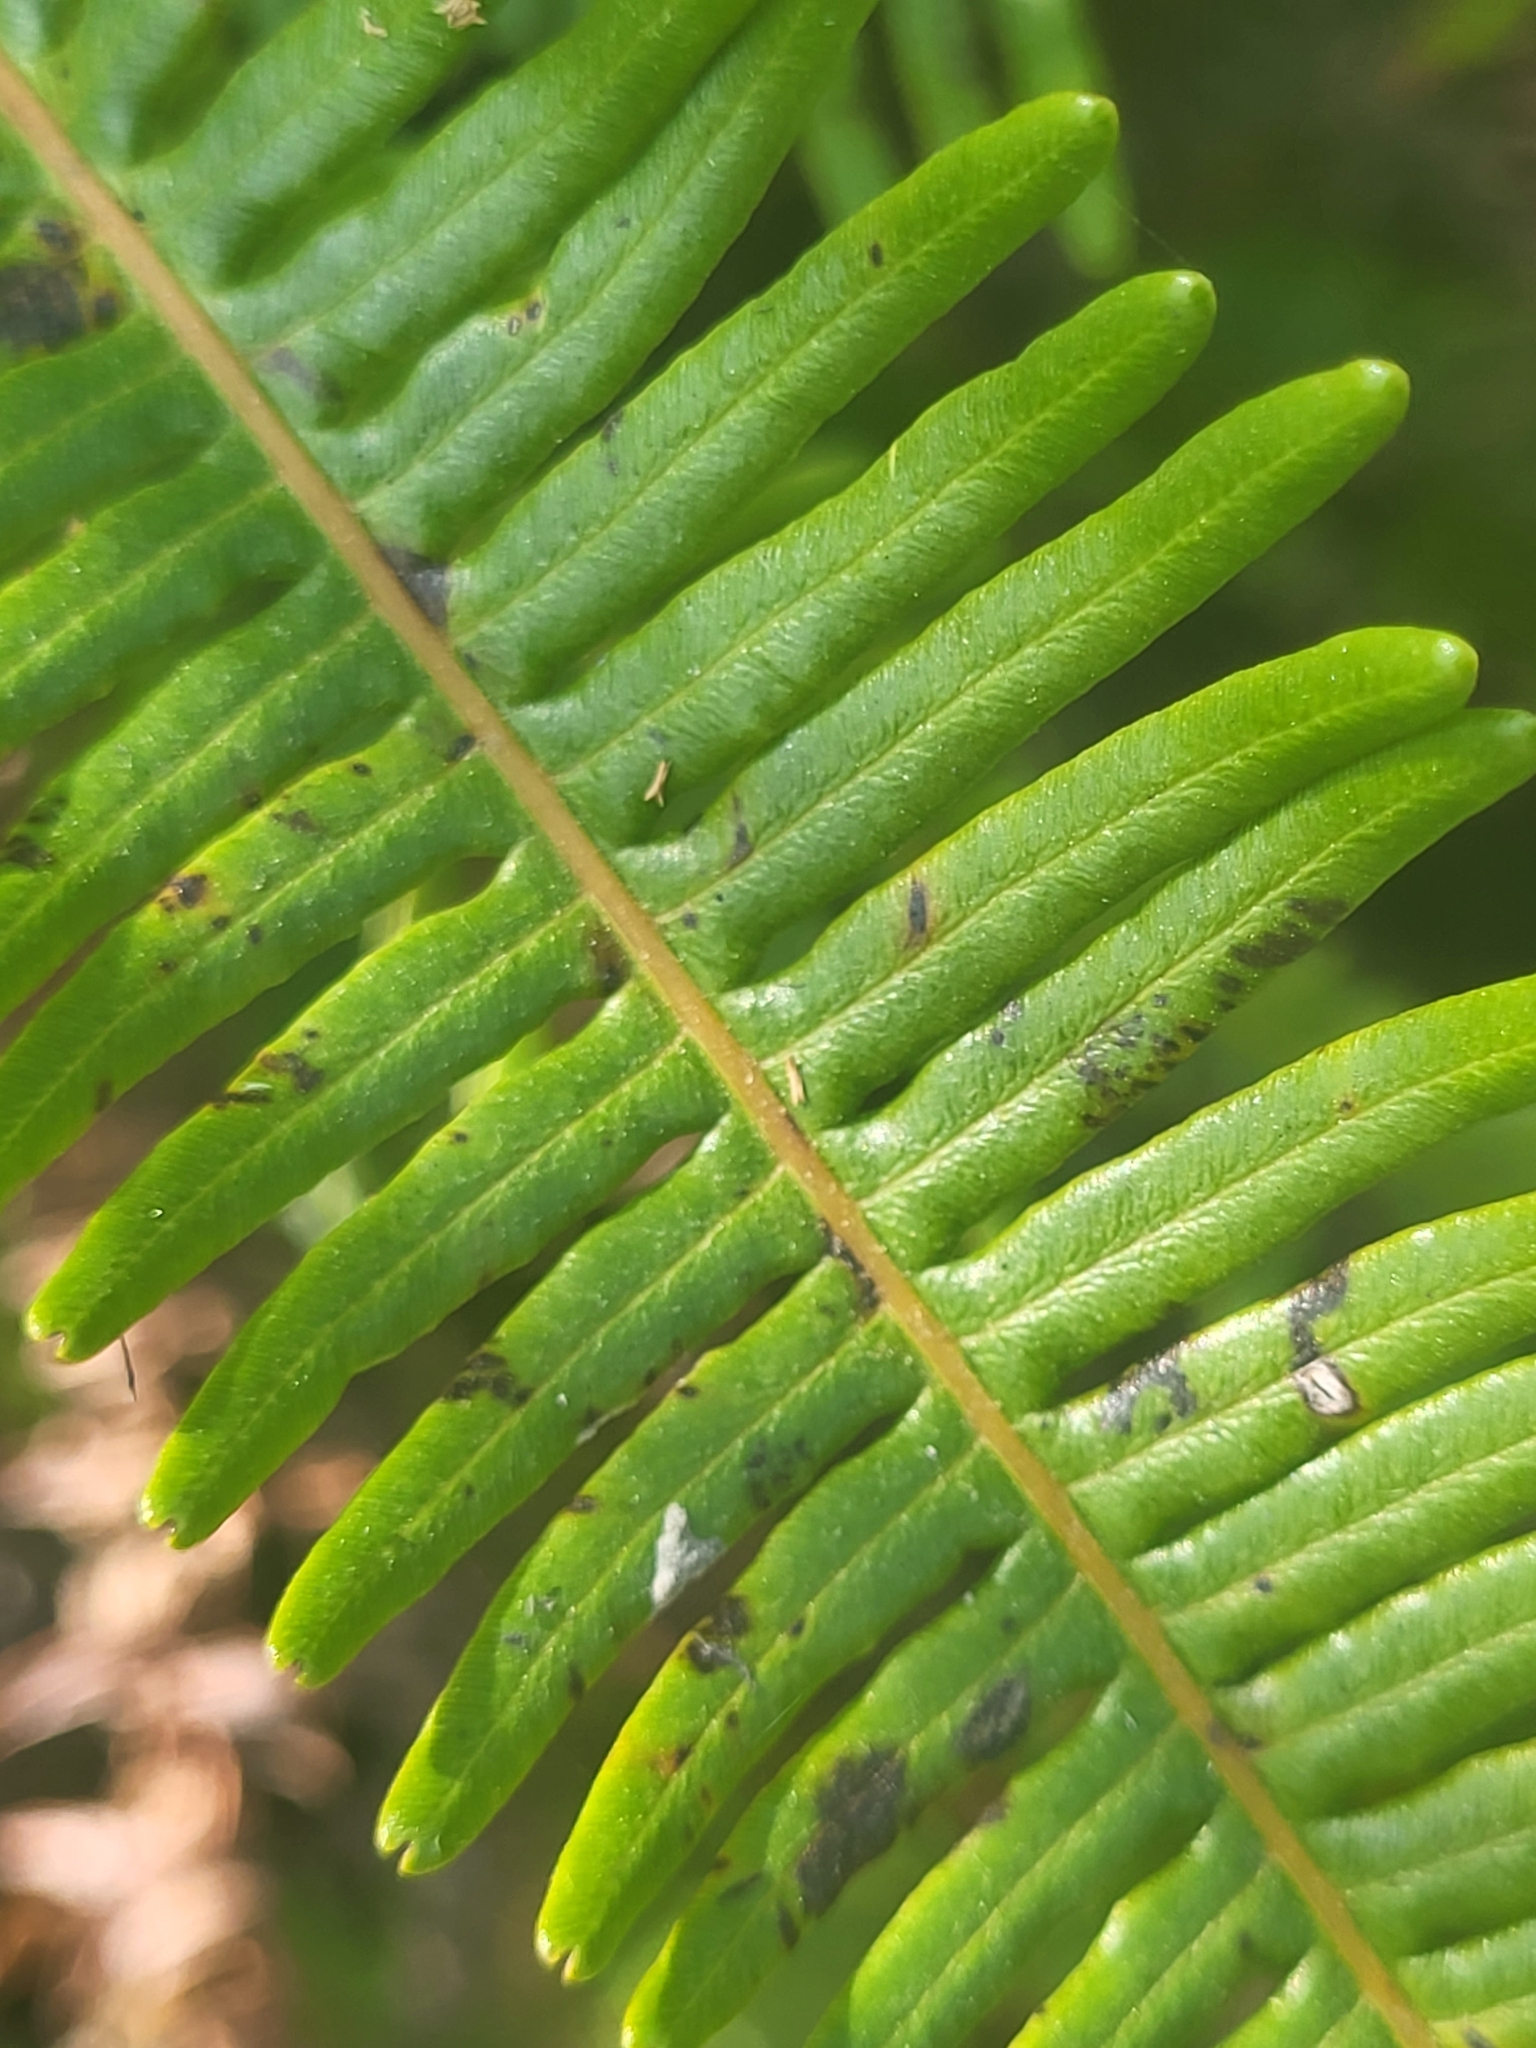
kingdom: Plantae
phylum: Tracheophyta
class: Polypodiopsida
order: Gleicheniales
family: Gleicheniaceae
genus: Dicranopteris
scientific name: Dicranopteris linearis
